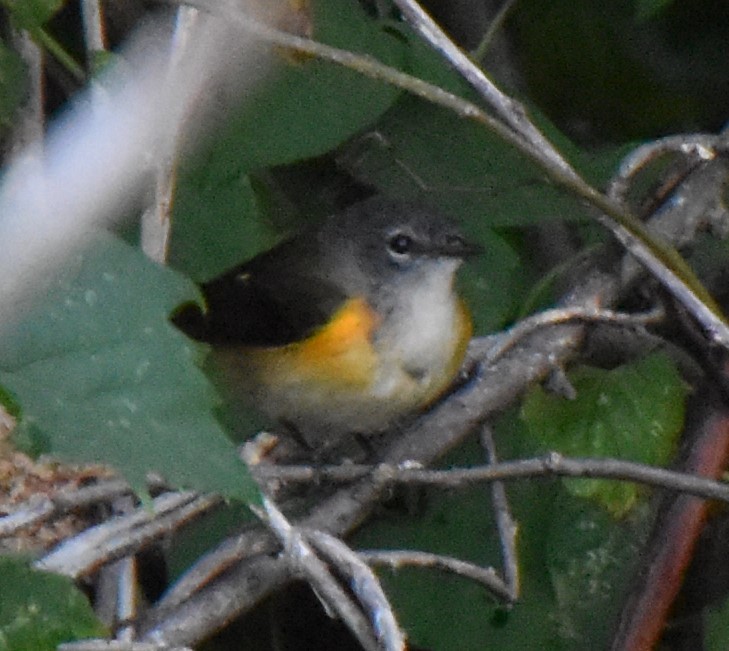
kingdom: Animalia
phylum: Chordata
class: Aves
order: Passeriformes
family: Parulidae
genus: Setophaga
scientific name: Setophaga ruticilla
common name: American redstart
